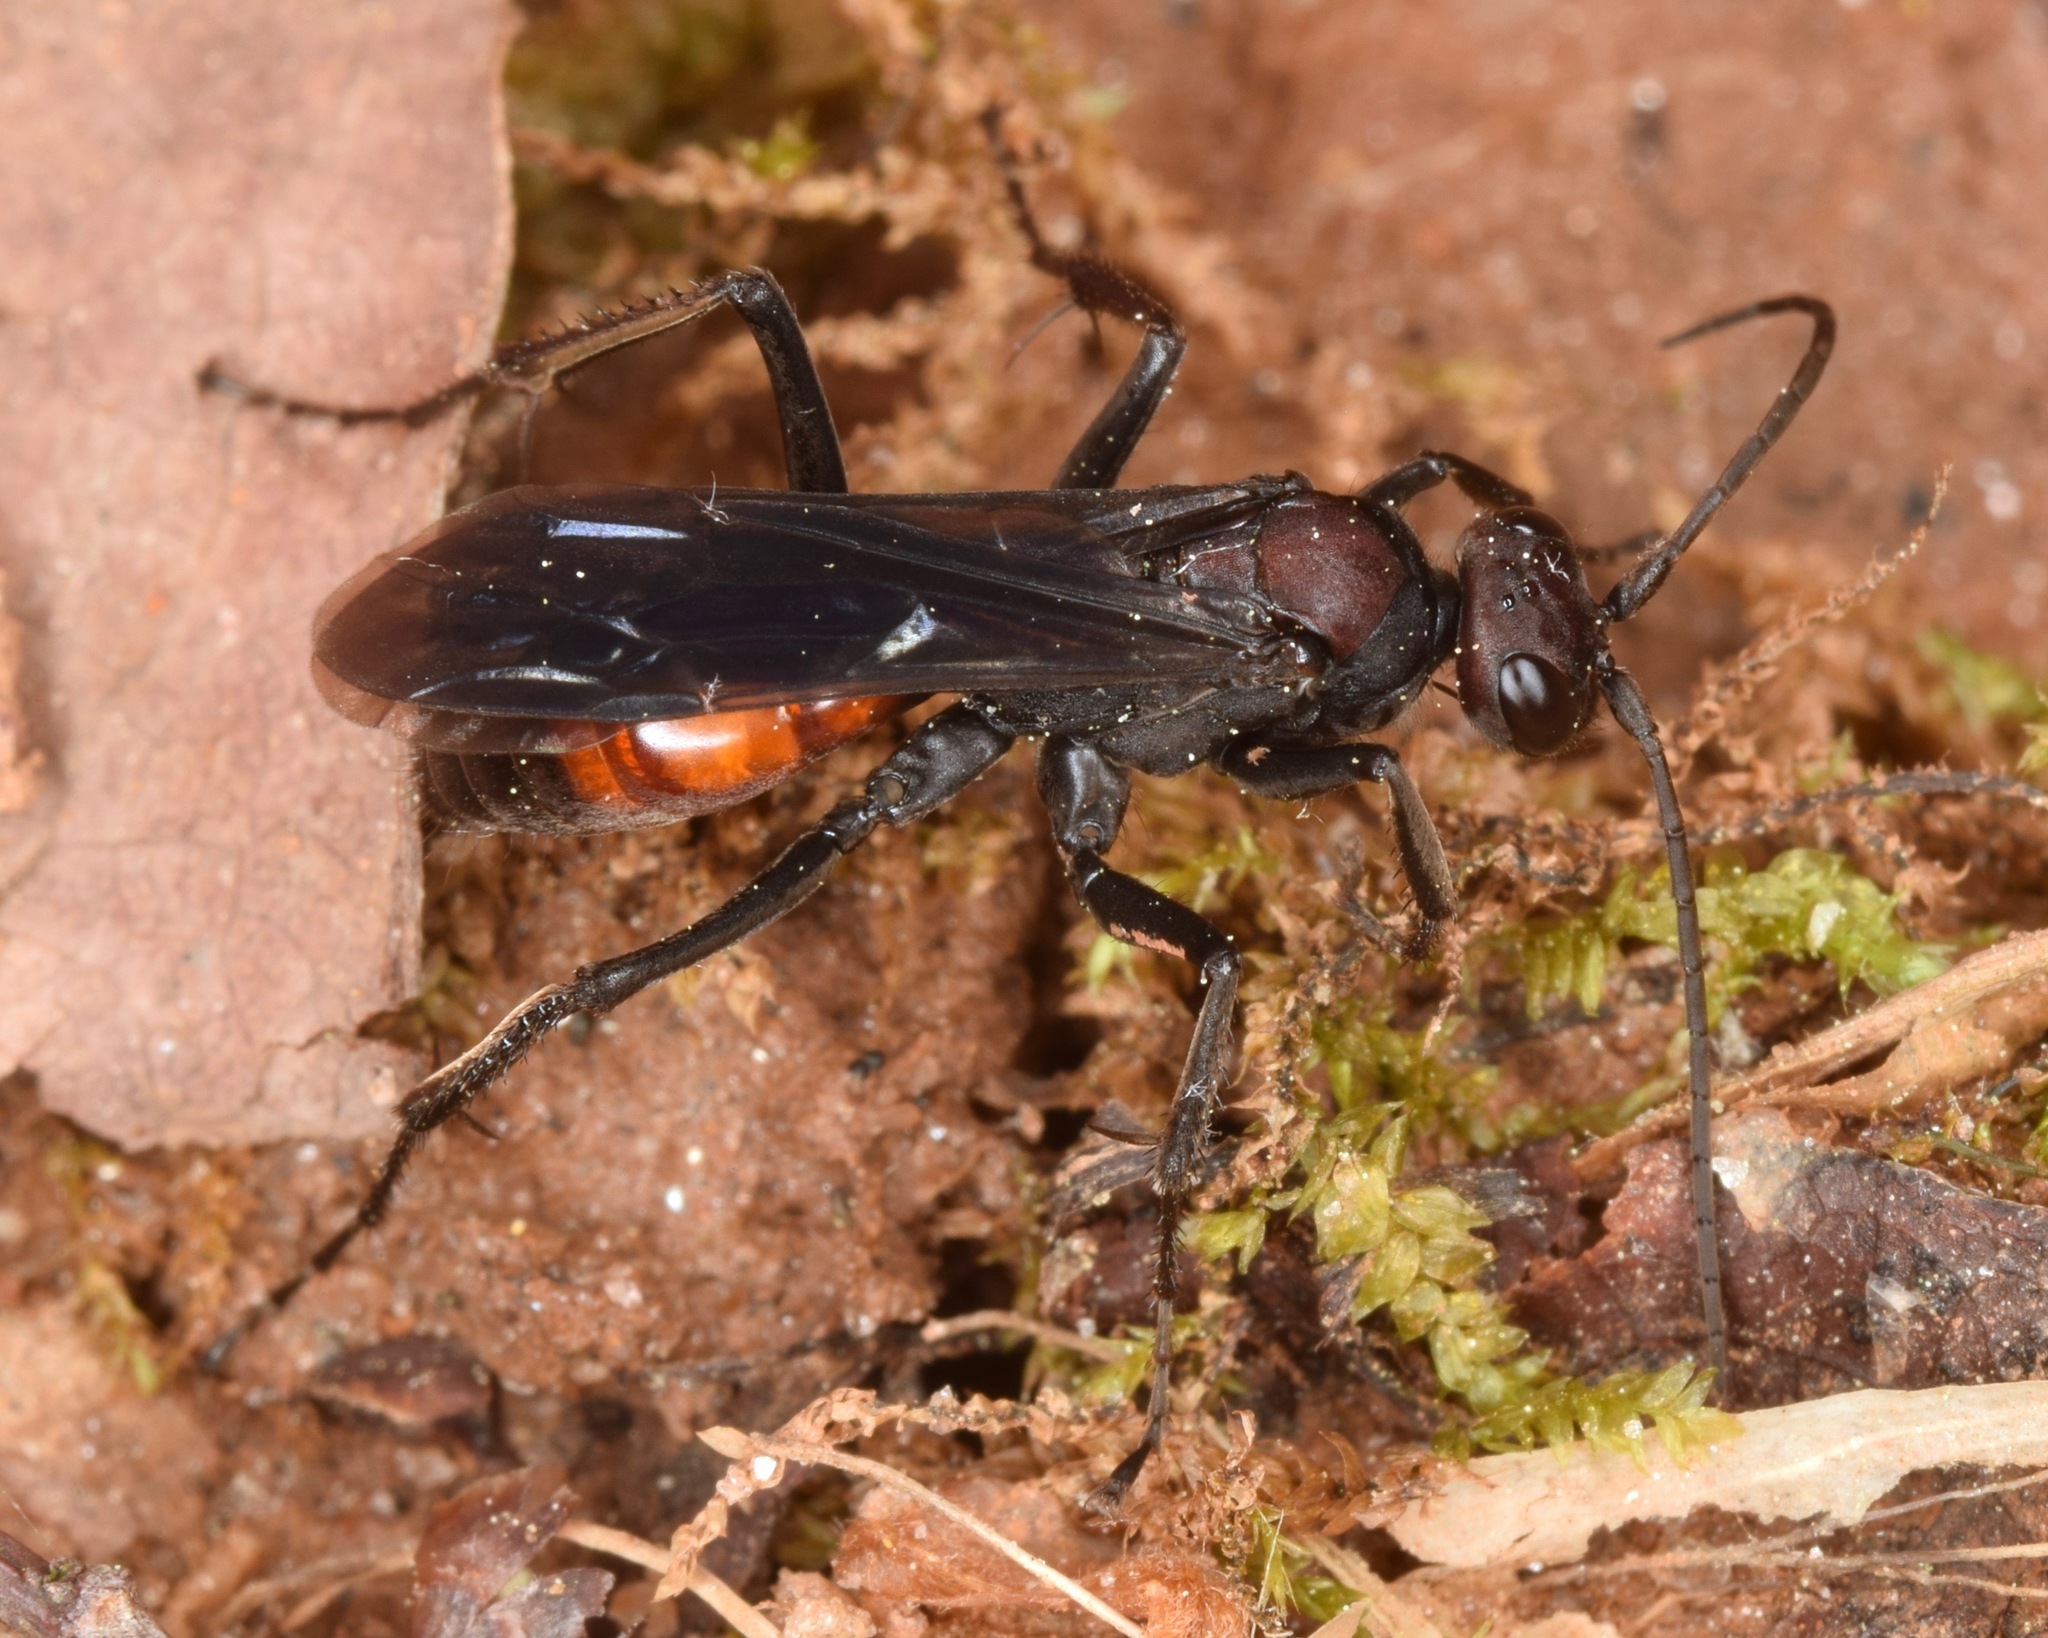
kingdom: Animalia
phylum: Arthropoda
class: Insecta
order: Hymenoptera
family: Pompilidae
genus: Priocnemis
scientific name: Priocnemis nigripes
